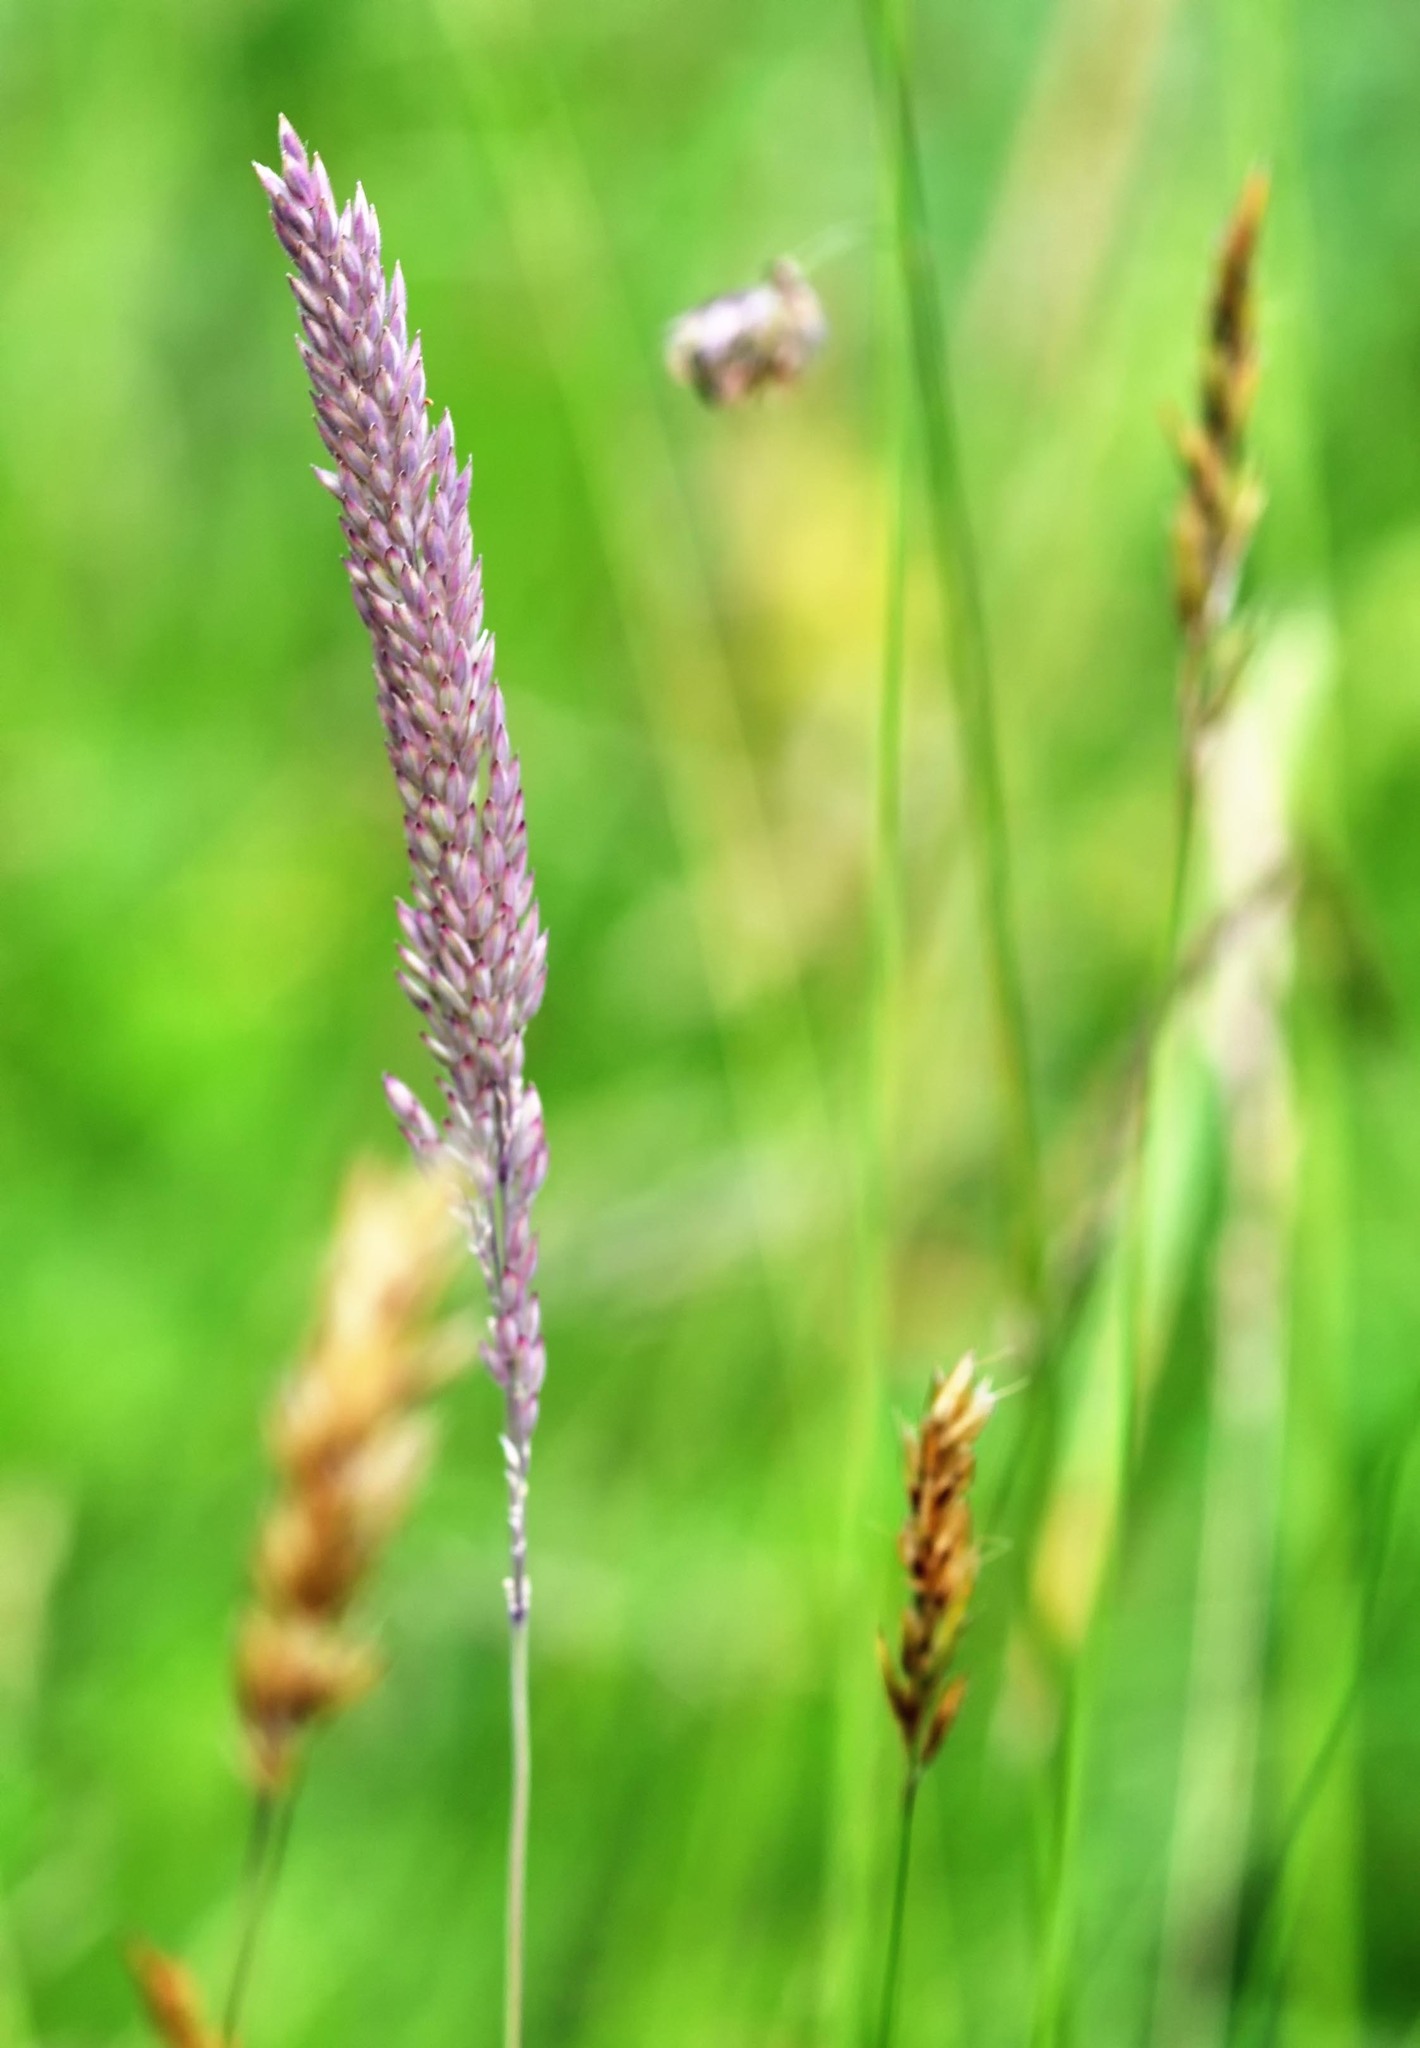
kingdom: Plantae
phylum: Tracheophyta
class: Liliopsida
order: Poales
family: Poaceae
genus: Holcus
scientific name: Holcus lanatus
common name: Yorkshire-fog
